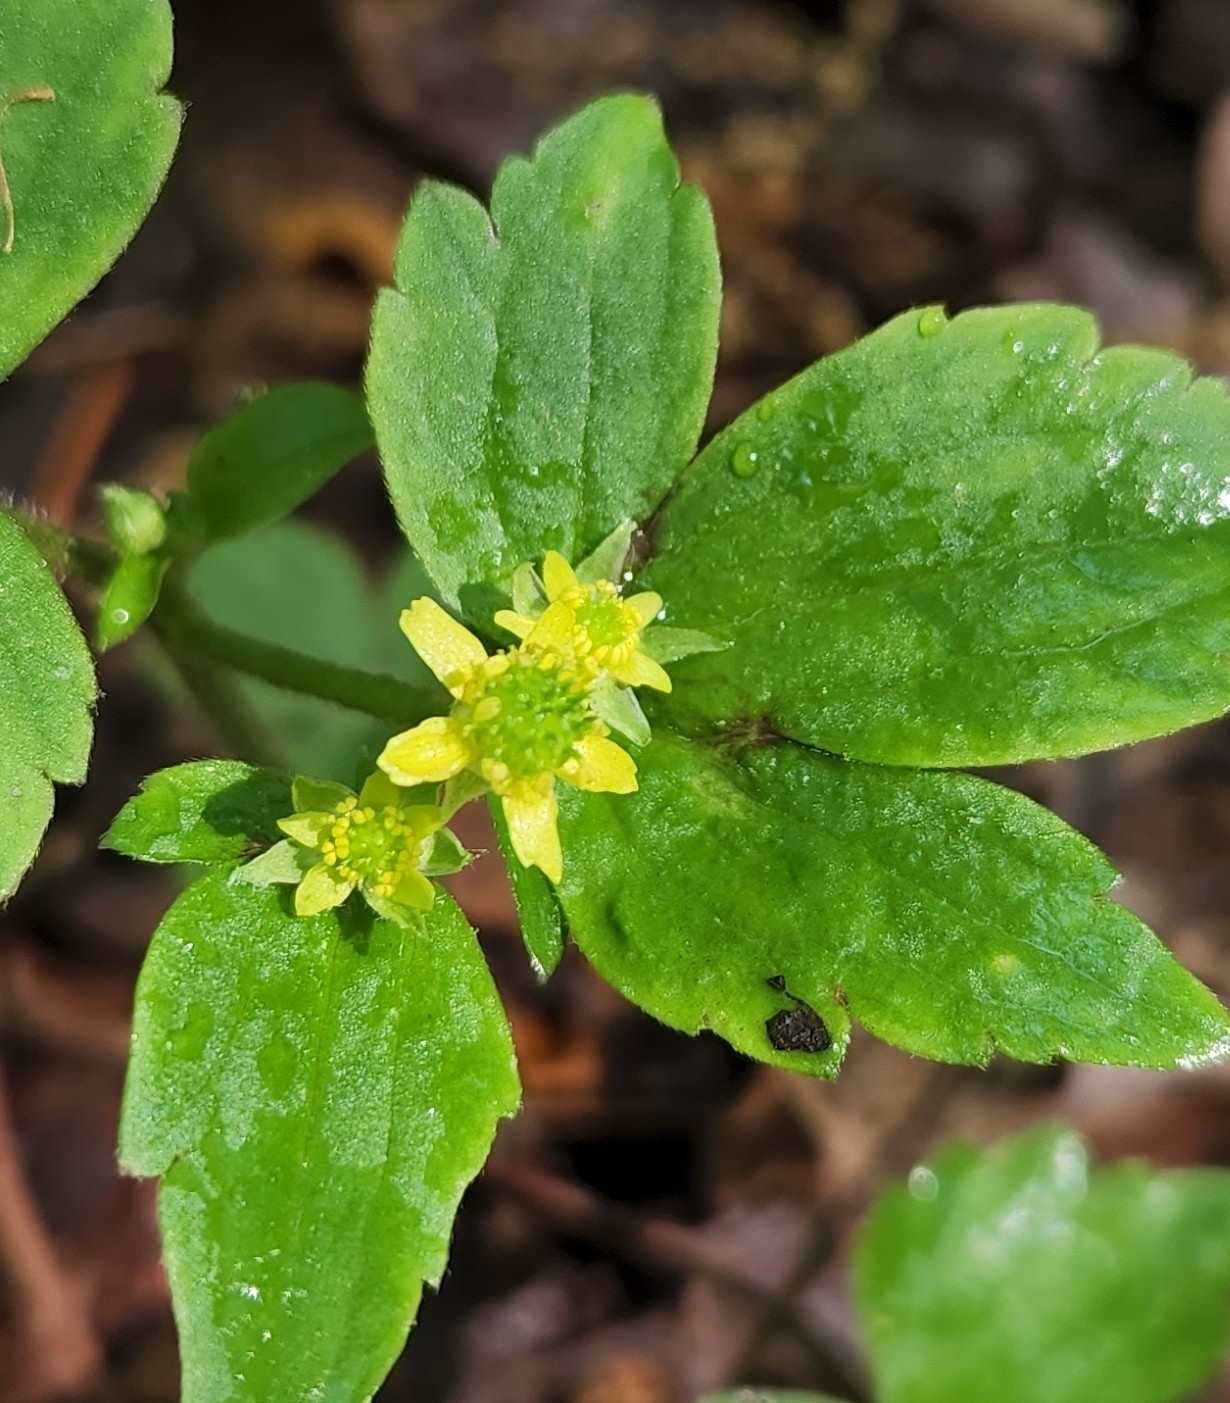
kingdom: Plantae
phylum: Tracheophyta
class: Magnoliopsida
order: Ranunculales
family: Ranunculaceae
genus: Ranunculus
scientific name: Ranunculus recurvatus
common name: Blisterwort
